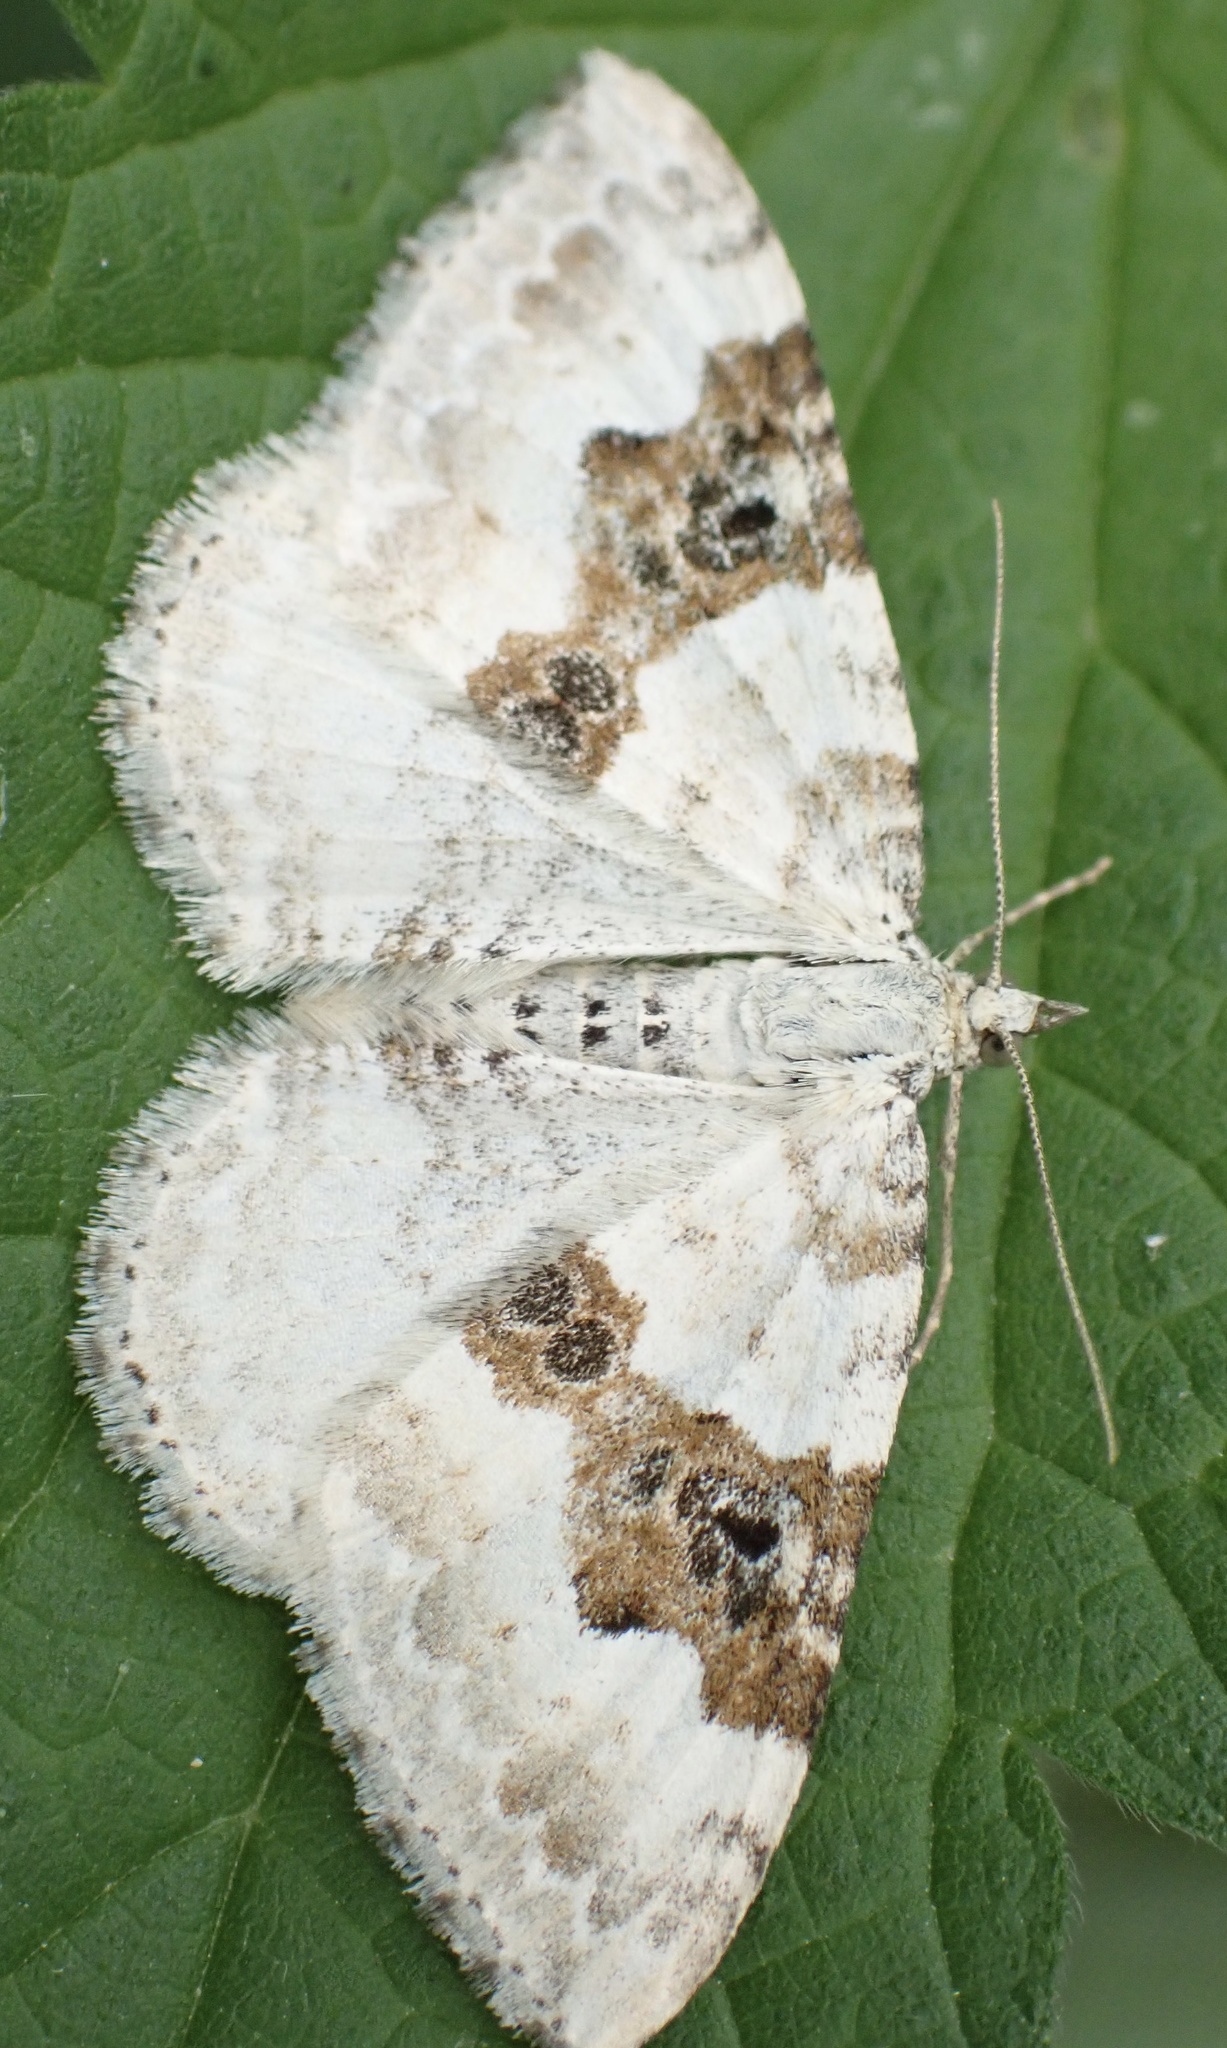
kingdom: Animalia
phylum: Arthropoda
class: Insecta
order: Lepidoptera
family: Geometridae
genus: Xanthorhoe
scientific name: Xanthorhoe montanata
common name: Silver-ground carpet
